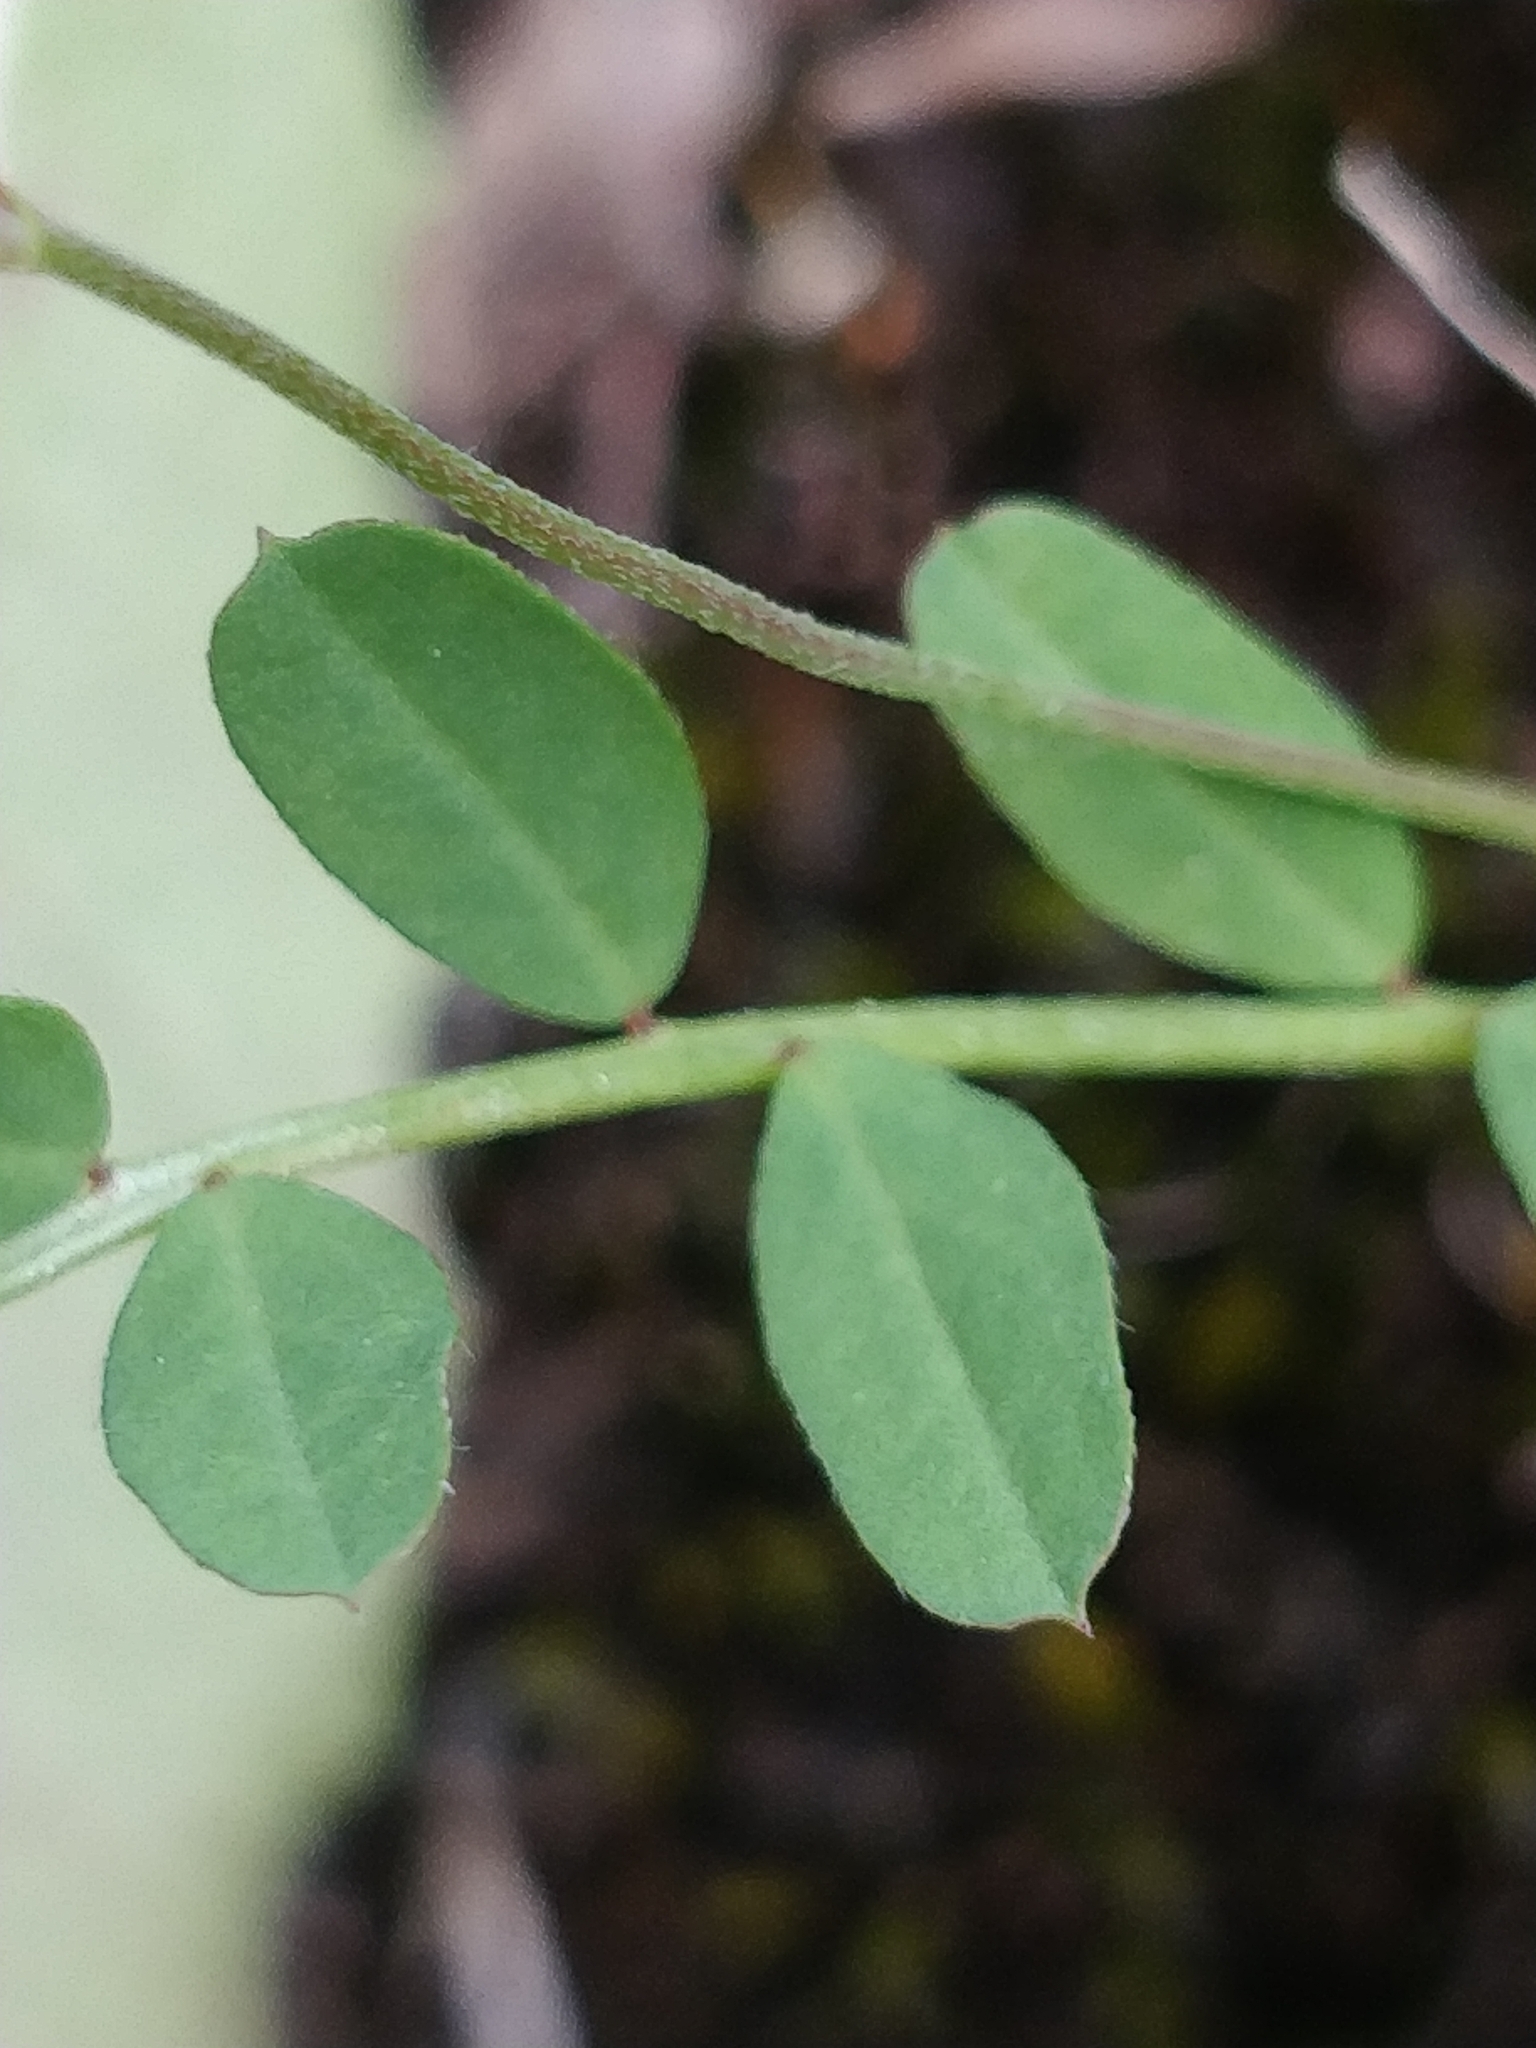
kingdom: Plantae
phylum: Tracheophyta
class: Magnoliopsida
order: Fabales
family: Fabaceae
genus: Ornithopus
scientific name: Ornithopus pinnatus
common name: Orange bird's-foot
